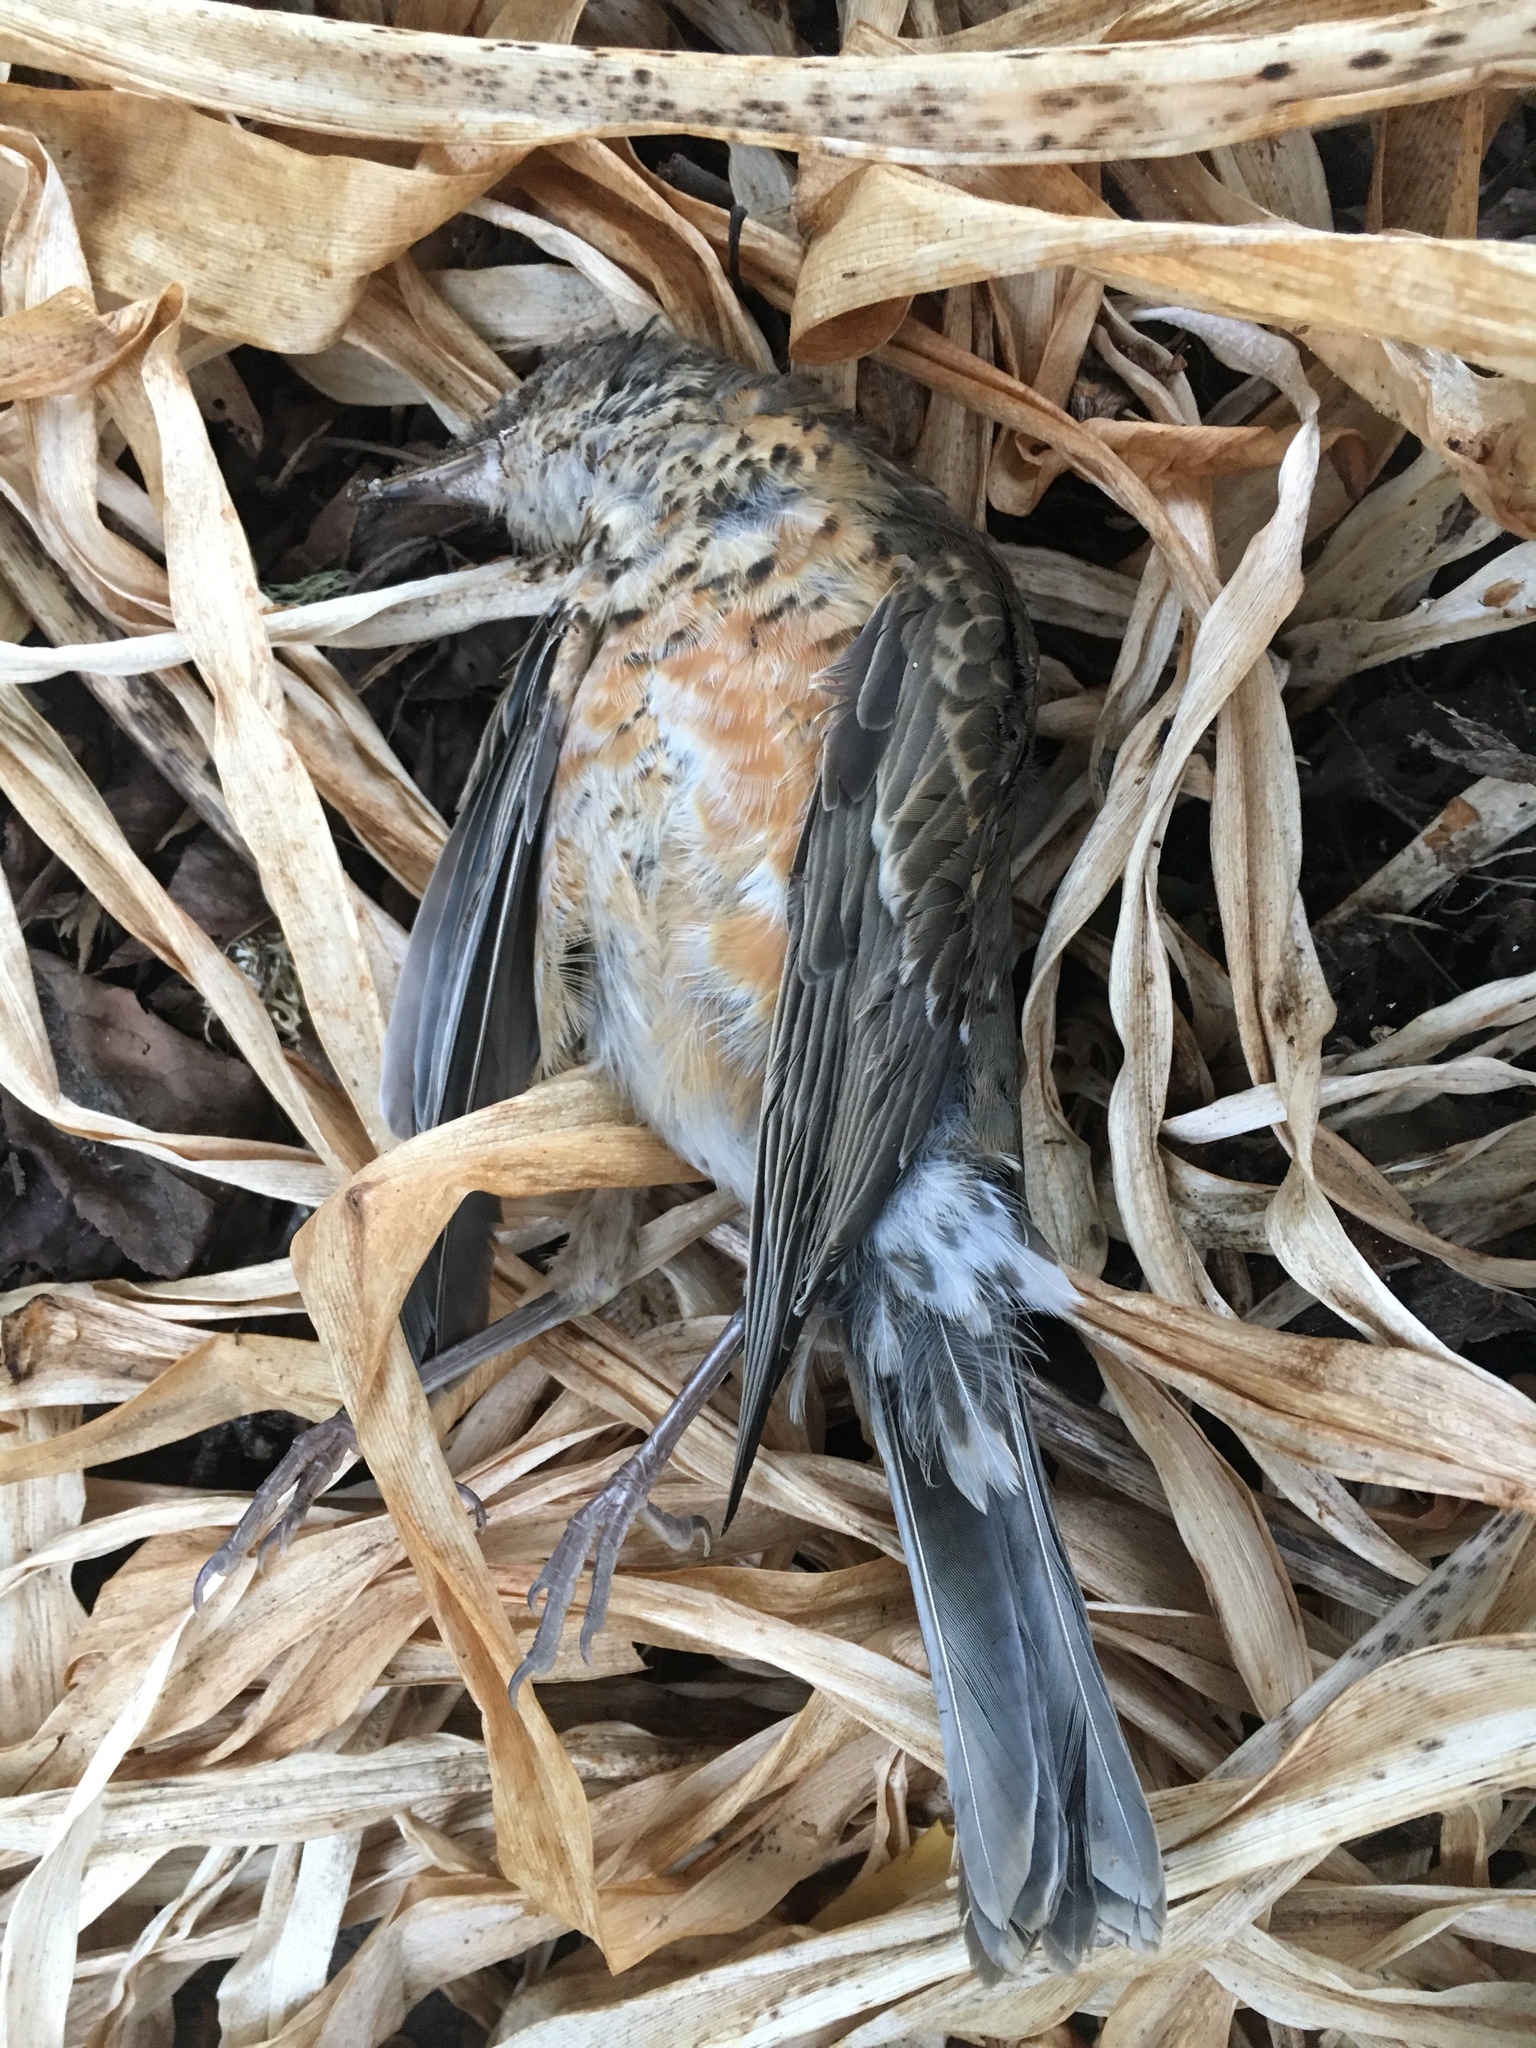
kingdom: Animalia
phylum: Chordata
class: Aves
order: Passeriformes
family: Turdidae
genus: Turdus
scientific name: Turdus migratorius
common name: American robin
